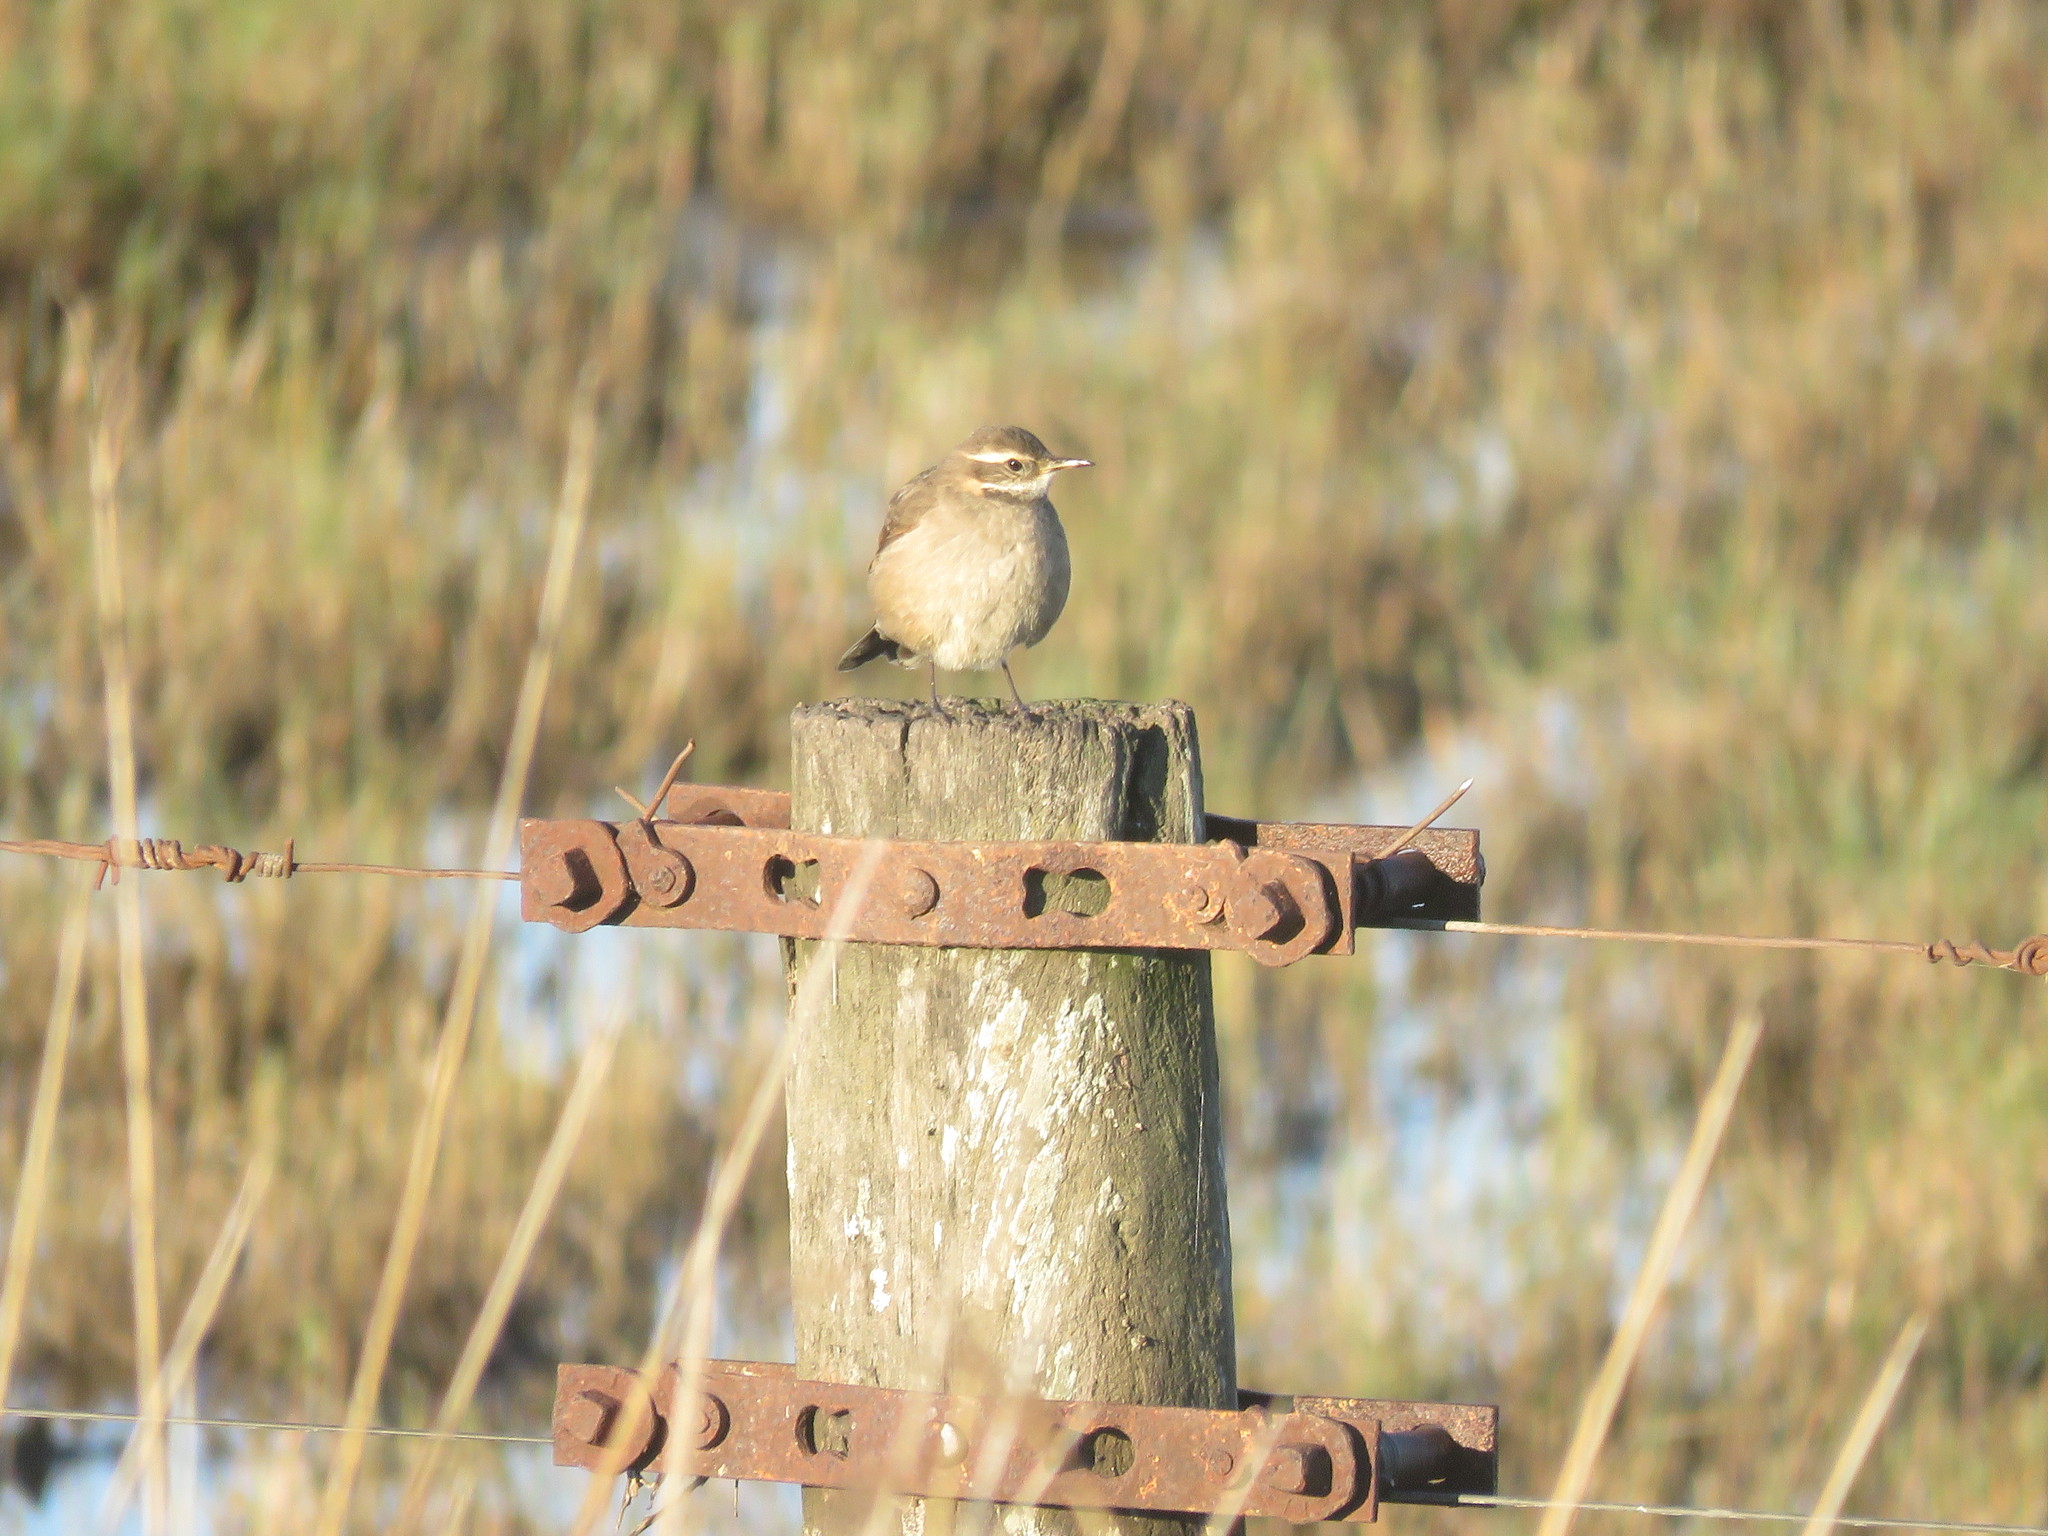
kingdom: Animalia
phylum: Chordata
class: Aves
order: Passeriformes
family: Furnariidae
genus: Cinclodes
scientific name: Cinclodes fuscus
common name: Buff-winged cinclodes
